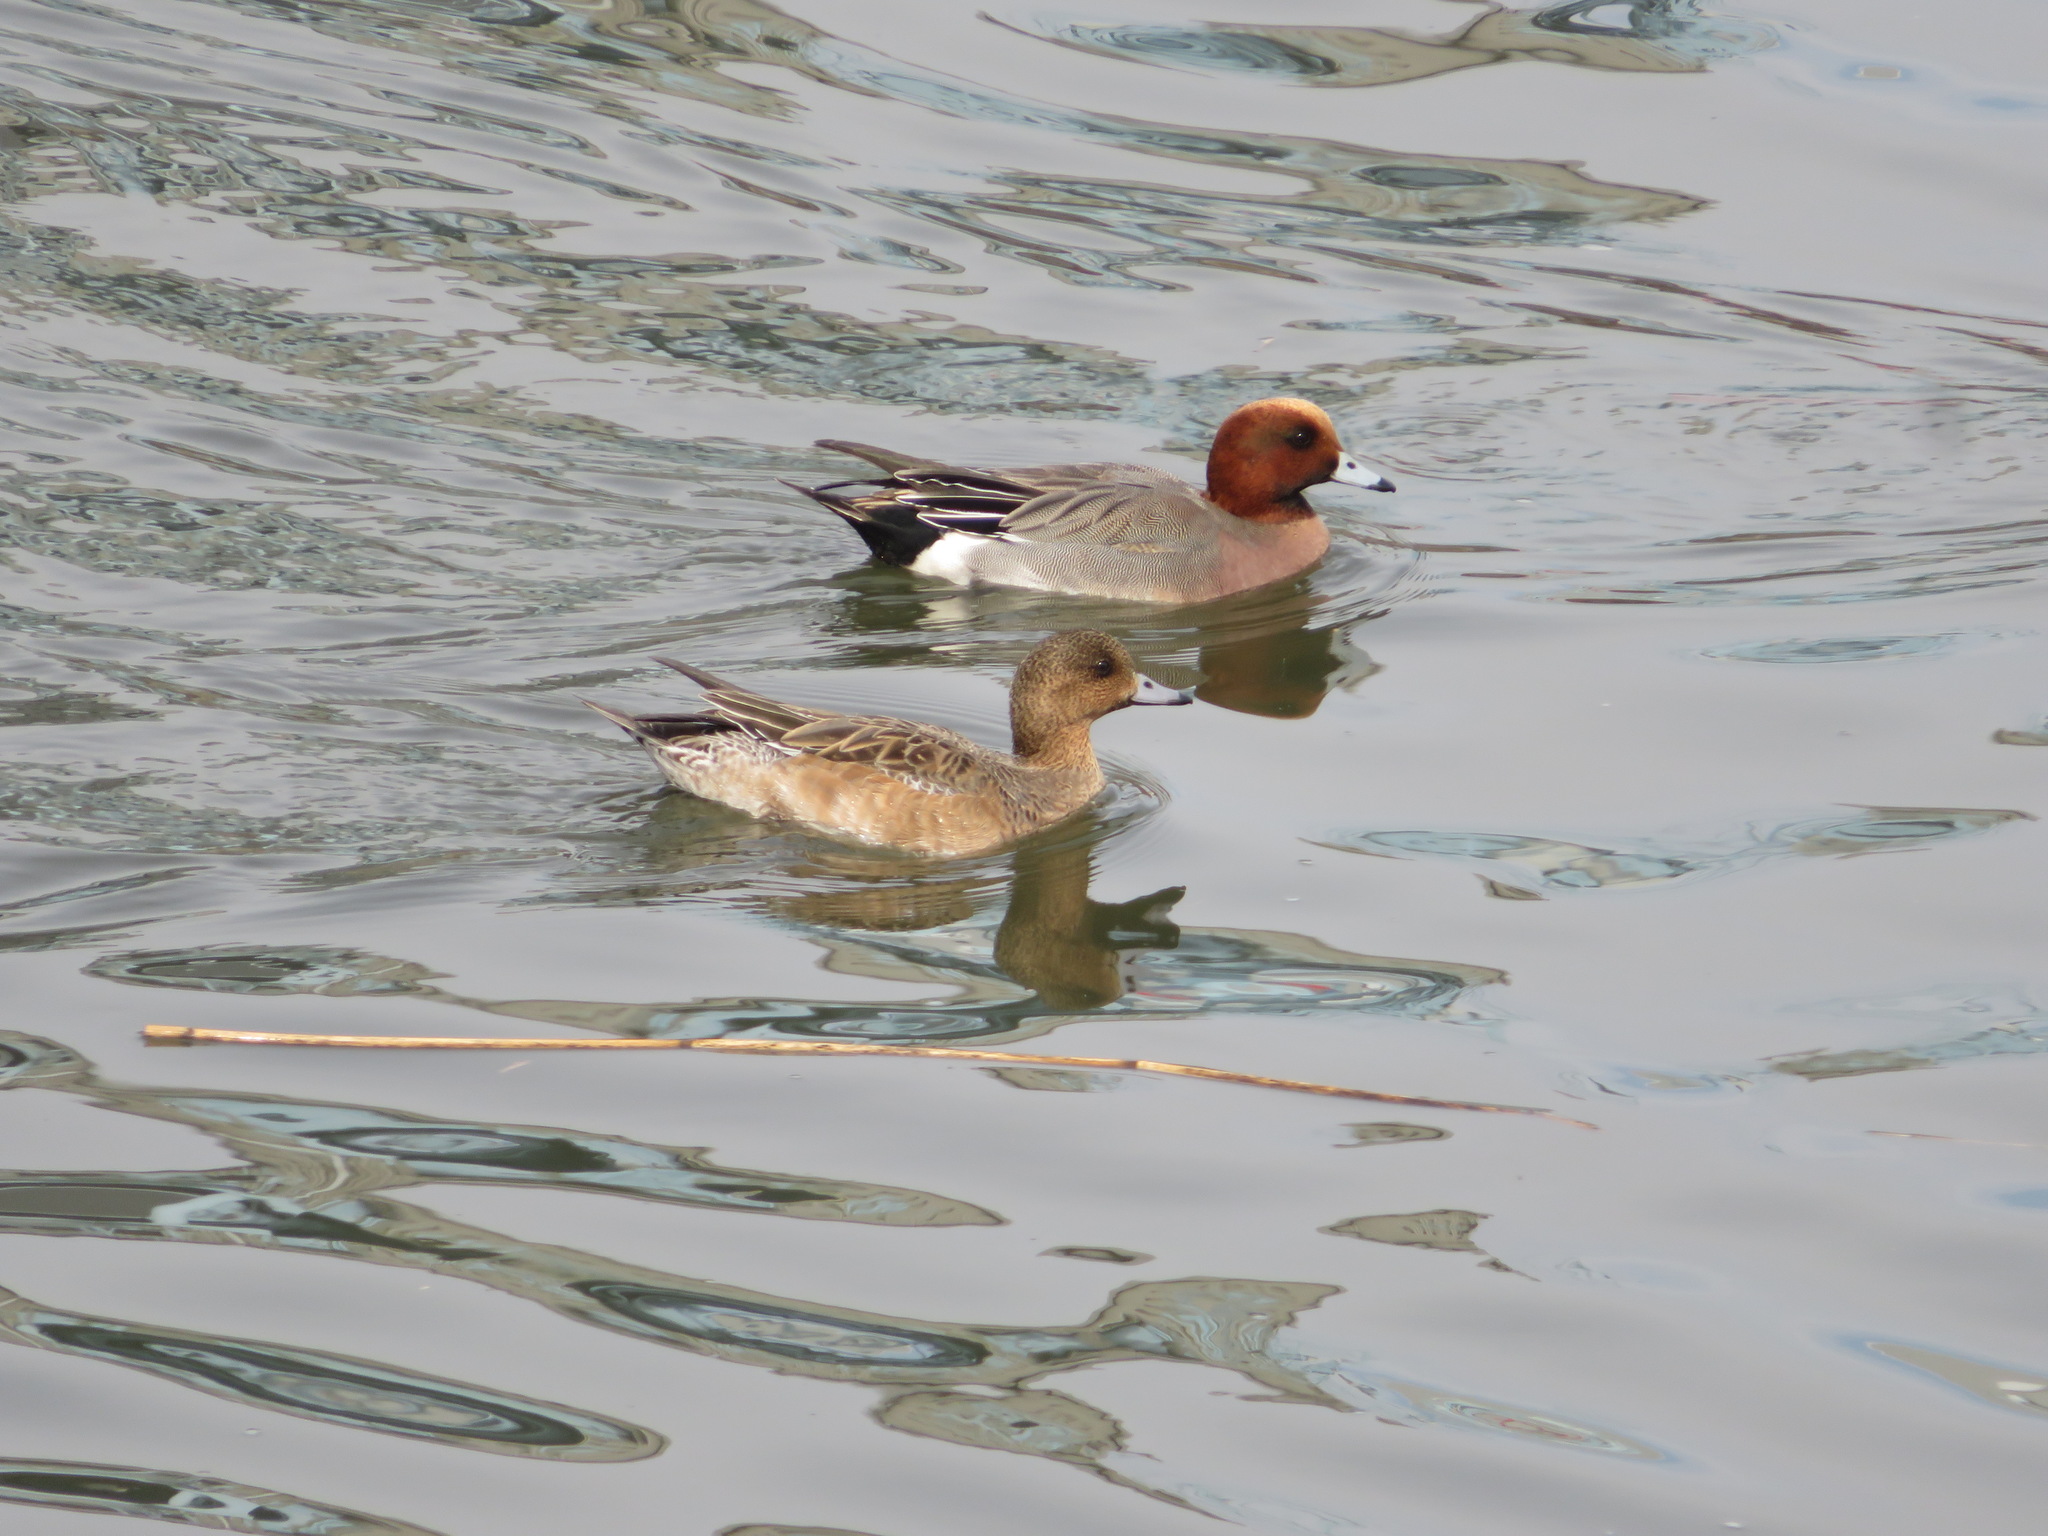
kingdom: Animalia
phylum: Chordata
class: Aves
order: Anseriformes
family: Anatidae
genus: Mareca
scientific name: Mareca penelope
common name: Eurasian wigeon
